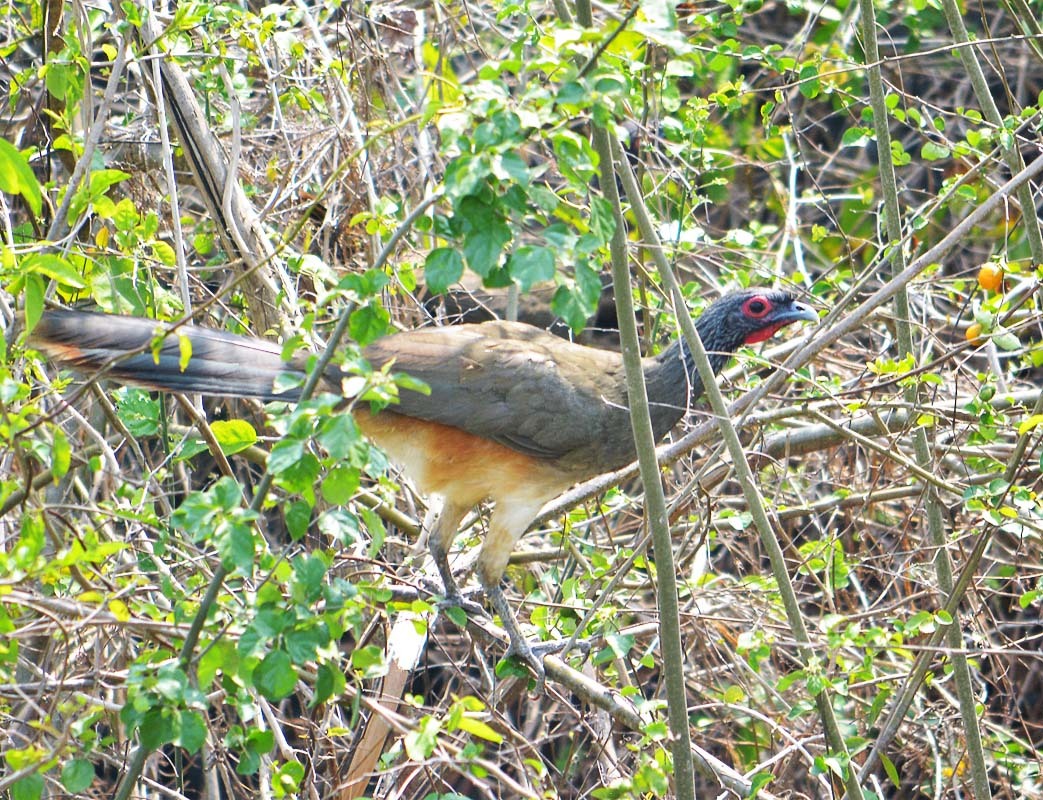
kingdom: Animalia
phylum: Chordata
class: Aves
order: Galliformes
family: Cracidae
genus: Ortalis
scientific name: Ortalis poliocephala
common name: West mexican chachalaca
